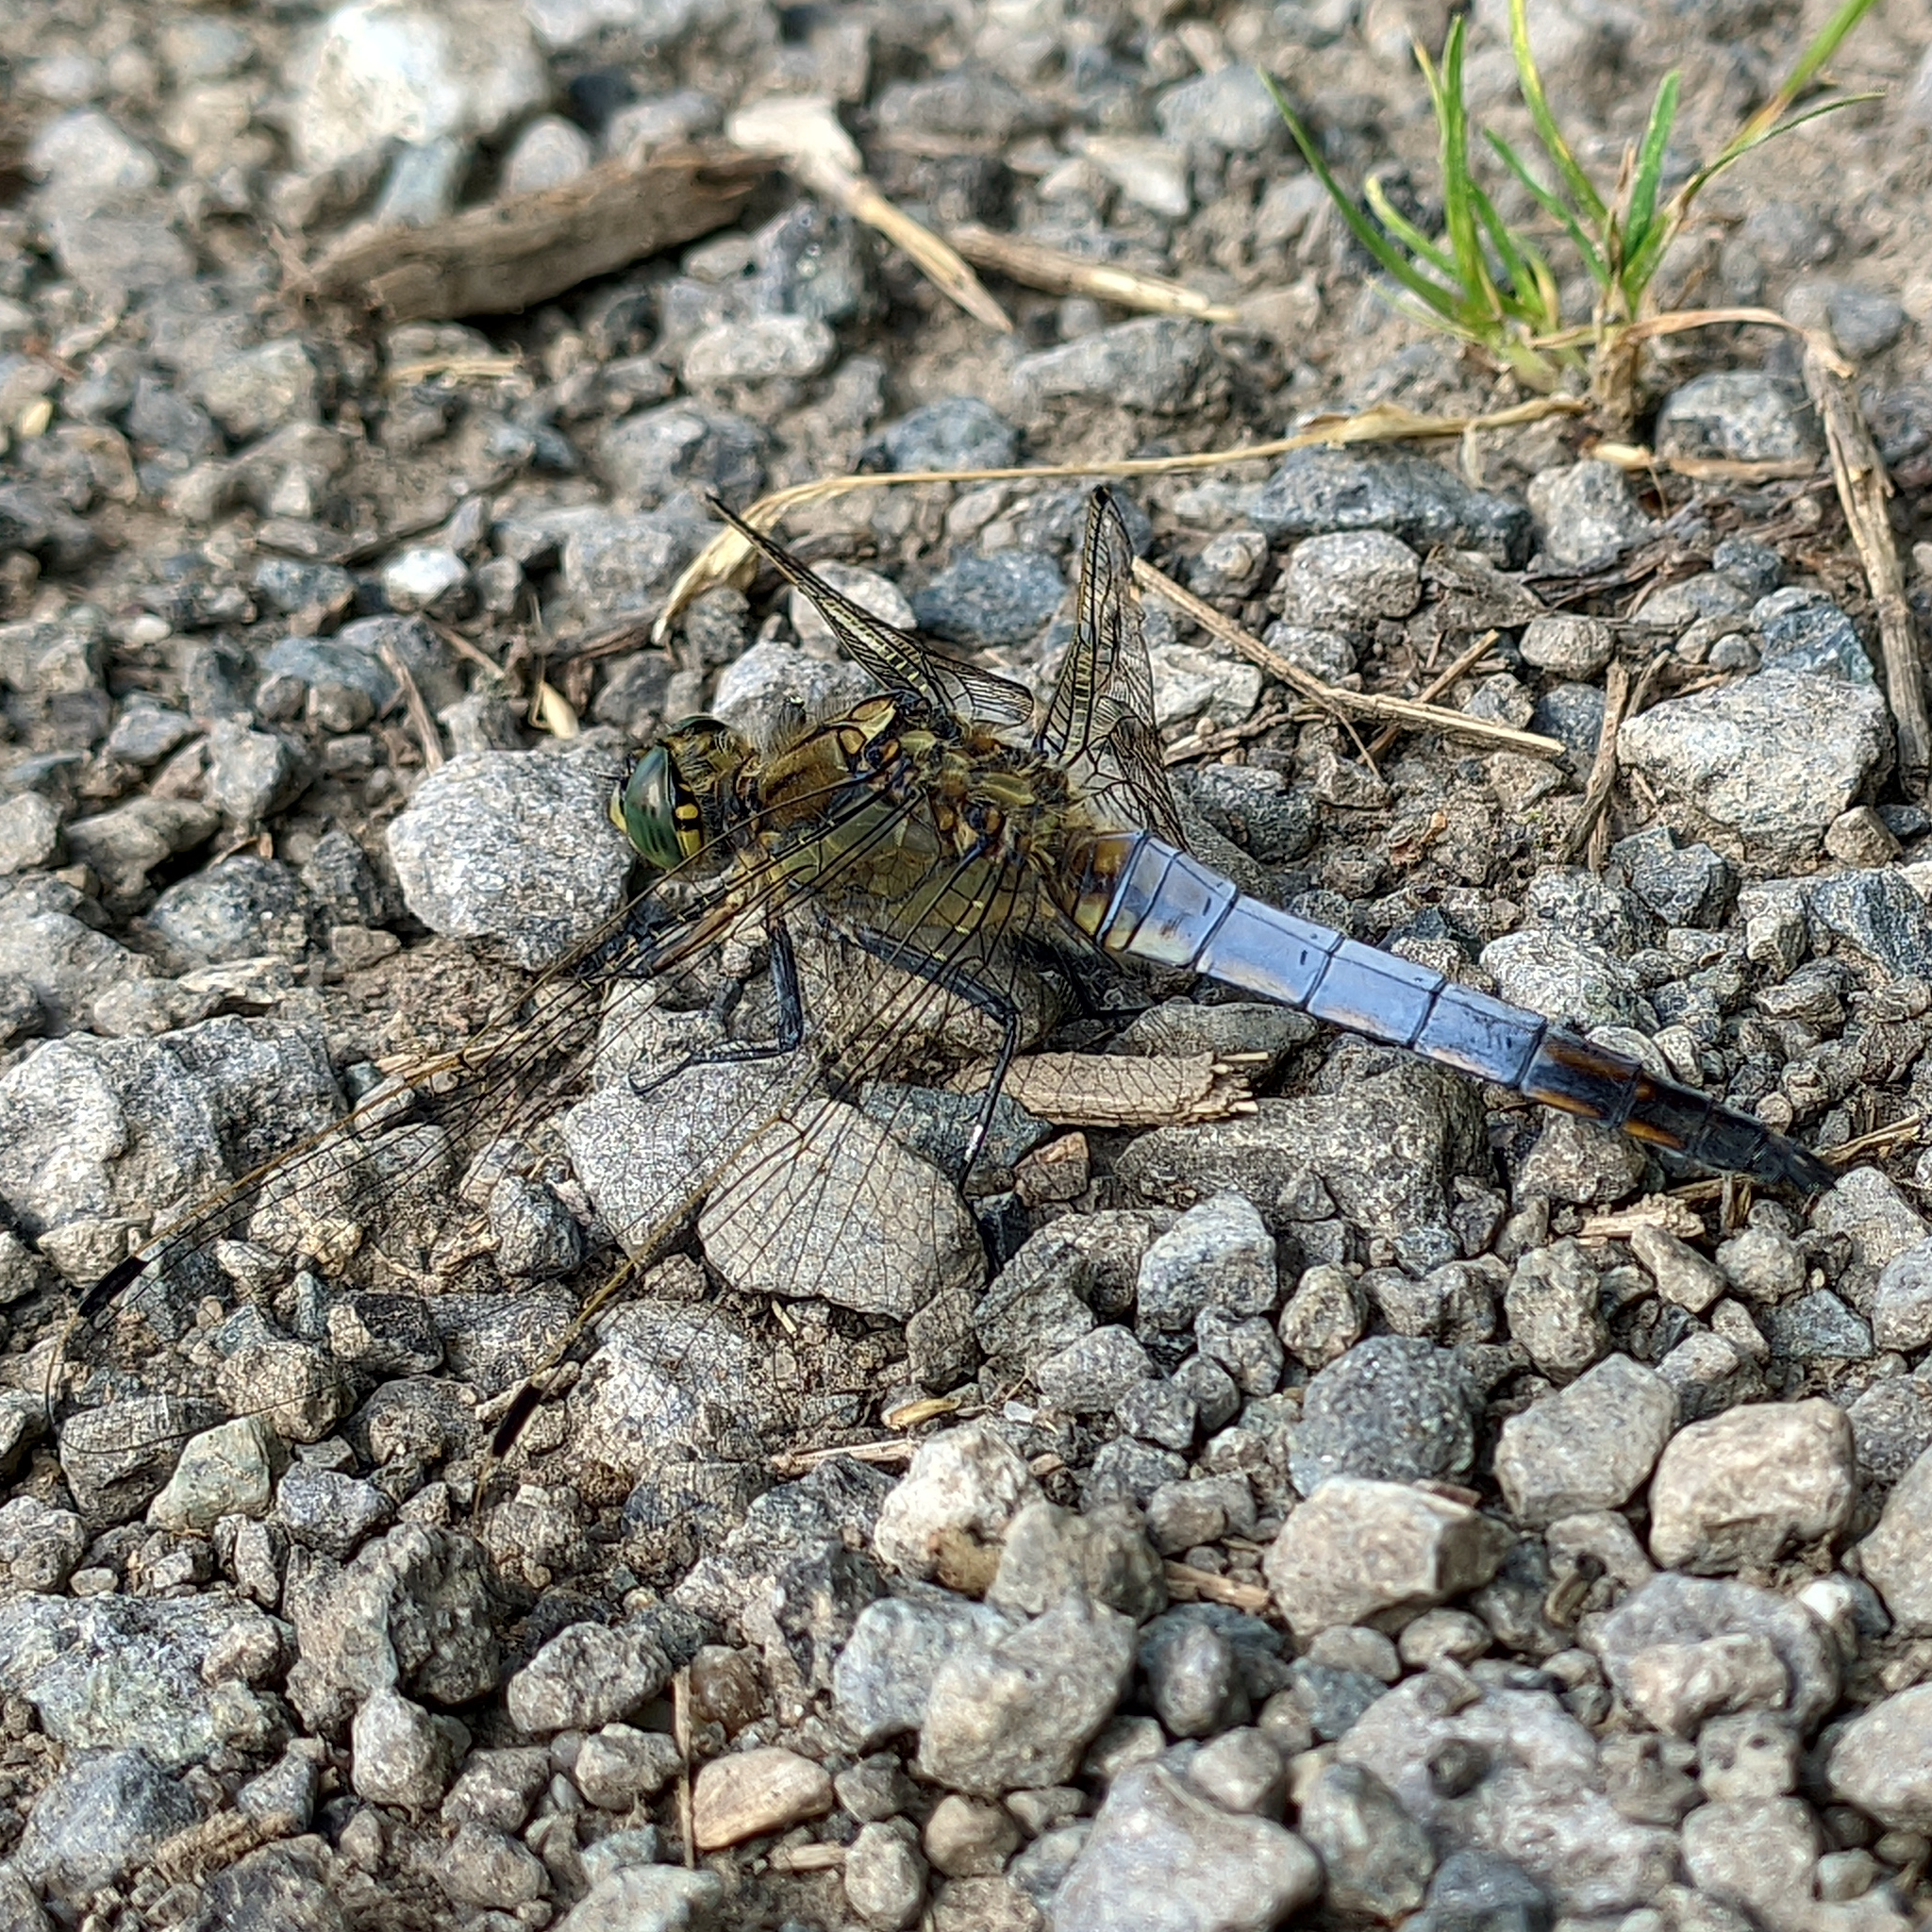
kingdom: Animalia
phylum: Arthropoda
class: Insecta
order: Odonata
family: Libellulidae
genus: Orthetrum
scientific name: Orthetrum cancellatum
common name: Black-tailed skimmer
